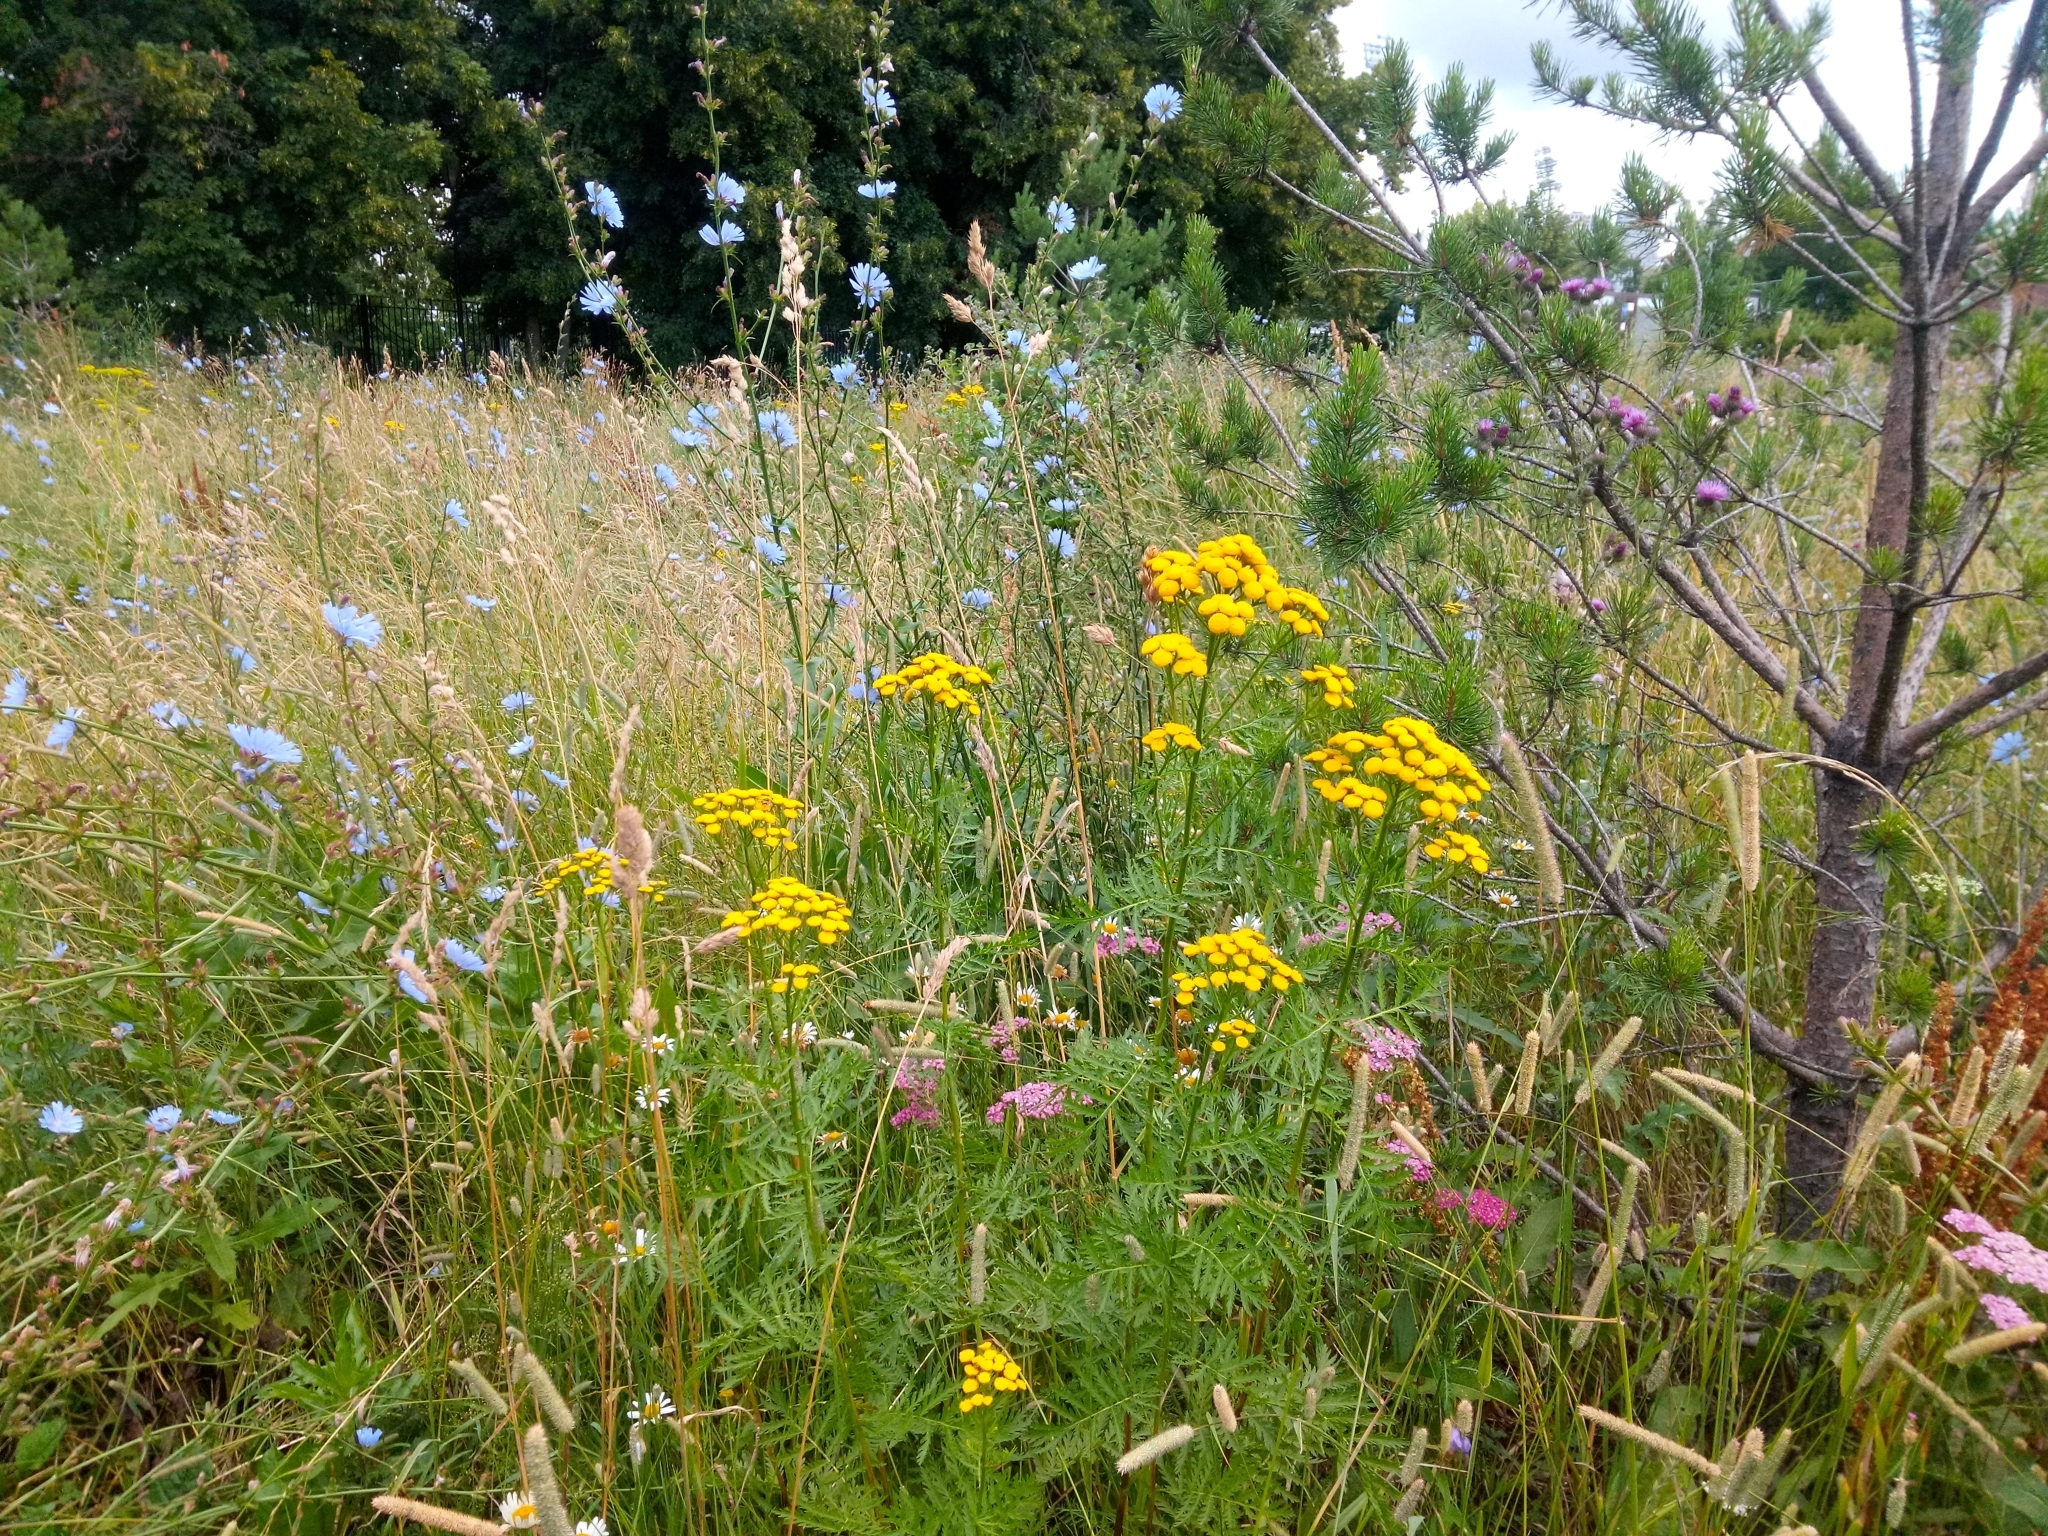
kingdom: Plantae
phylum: Tracheophyta
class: Magnoliopsida
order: Asterales
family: Asteraceae
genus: Tanacetum
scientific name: Tanacetum vulgare
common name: Common tansy
